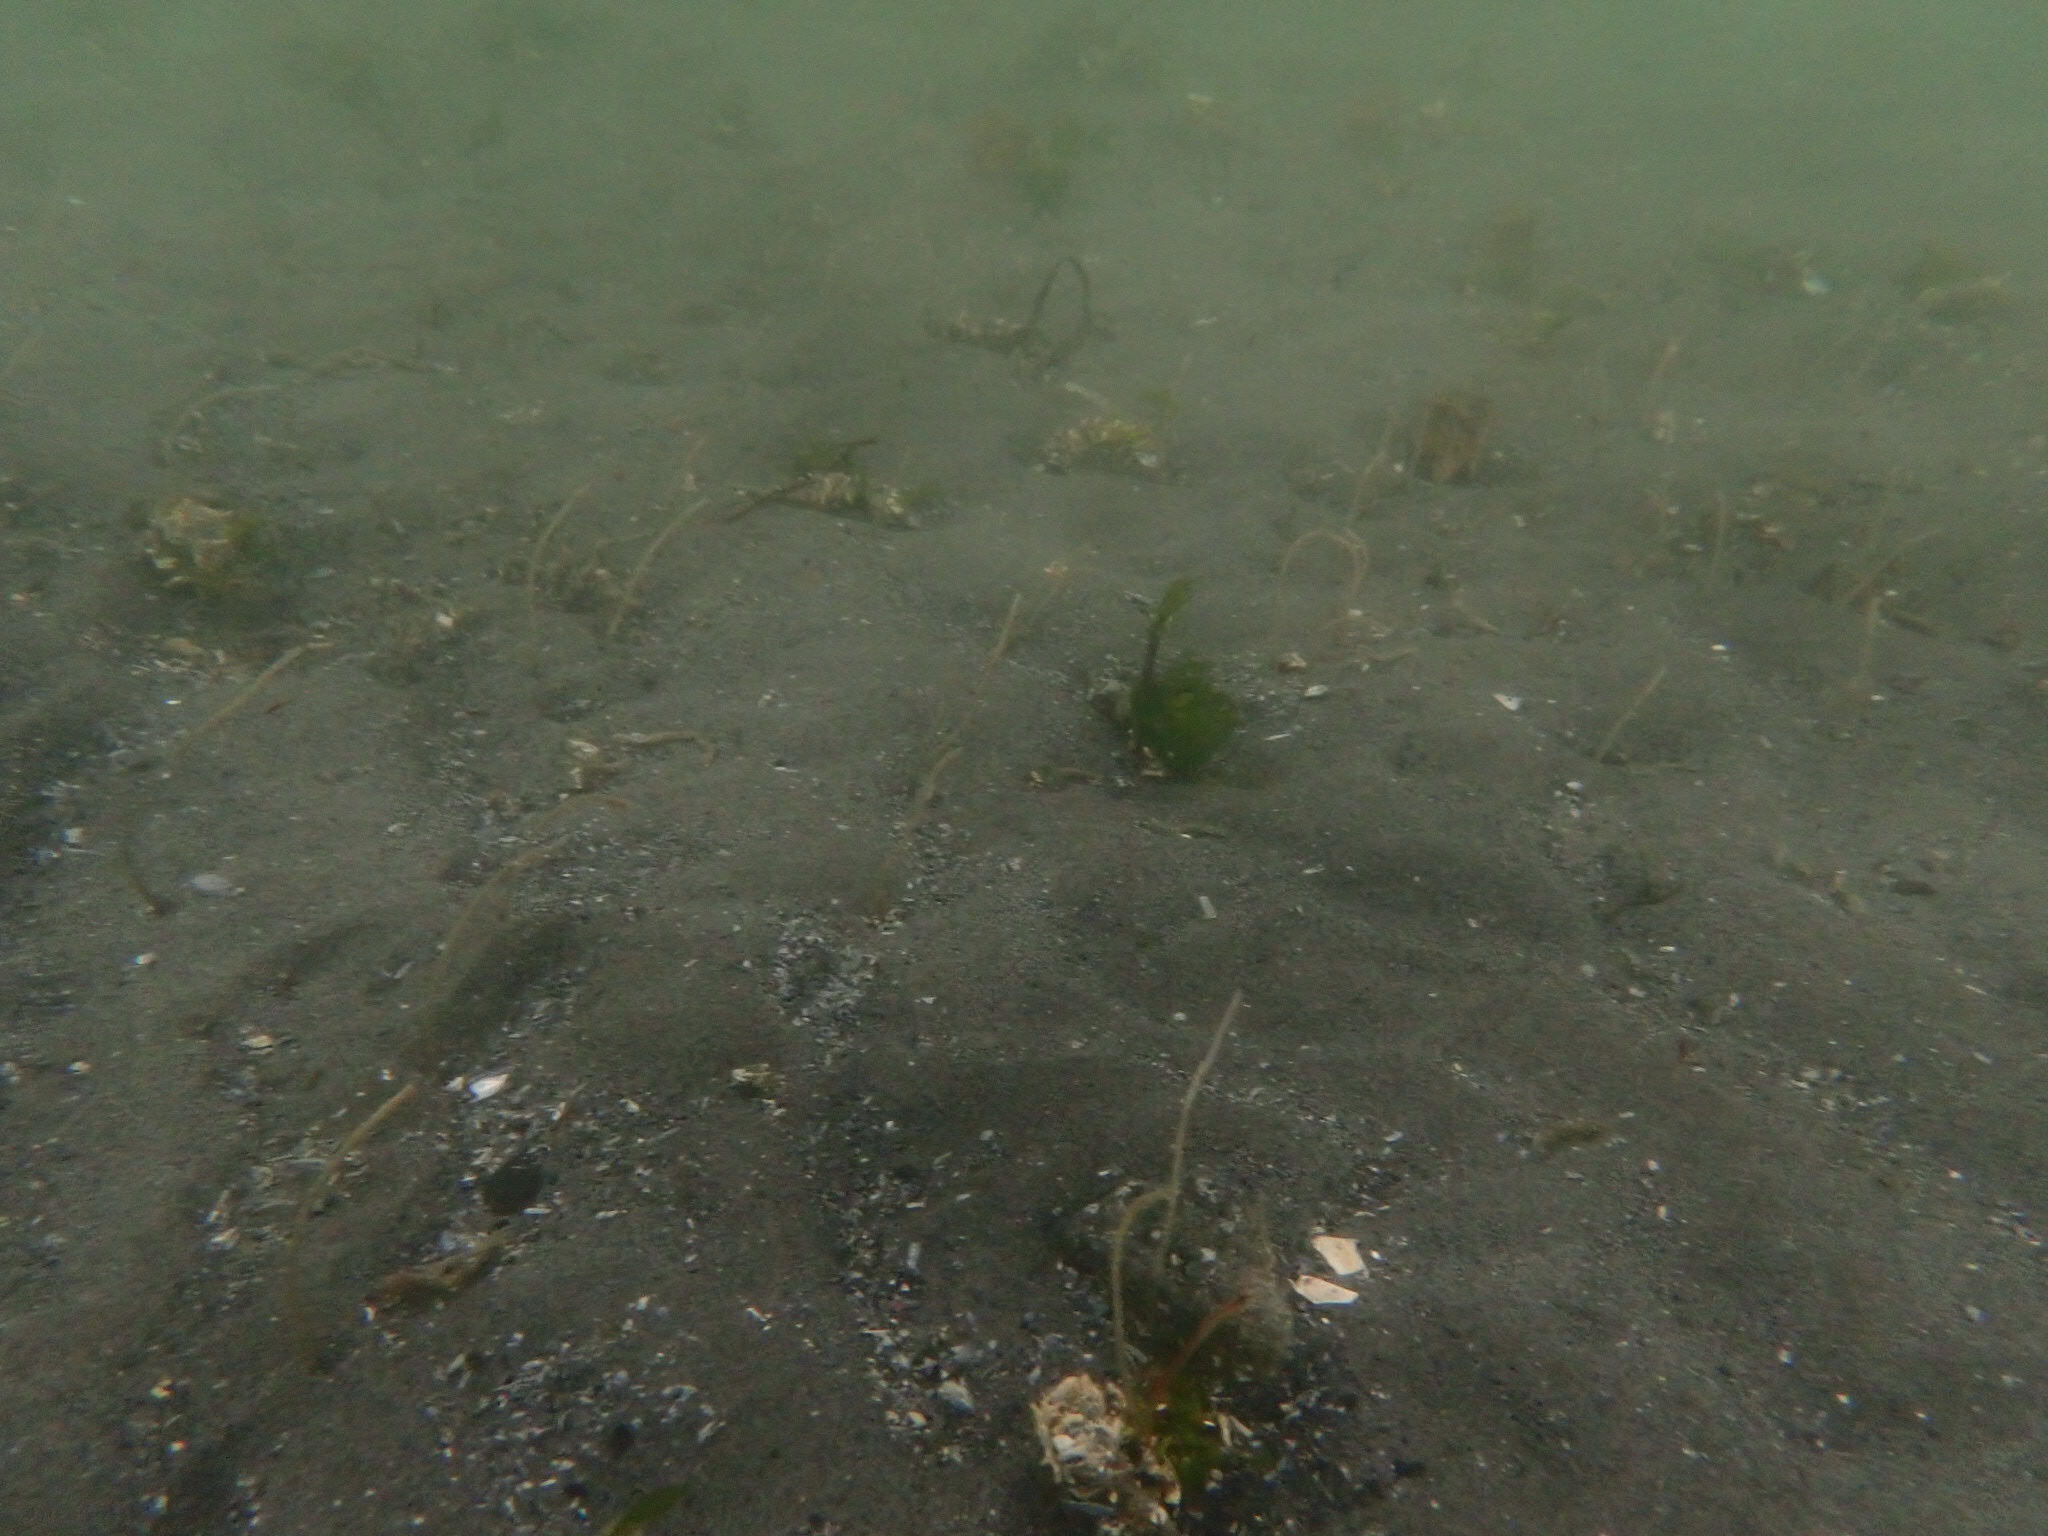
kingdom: Animalia
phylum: Annelida
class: Polychaeta
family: Chaetopteridae
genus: Spiochaetopterus
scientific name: Spiochaetopterus costarum
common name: Glassy tubeworm
